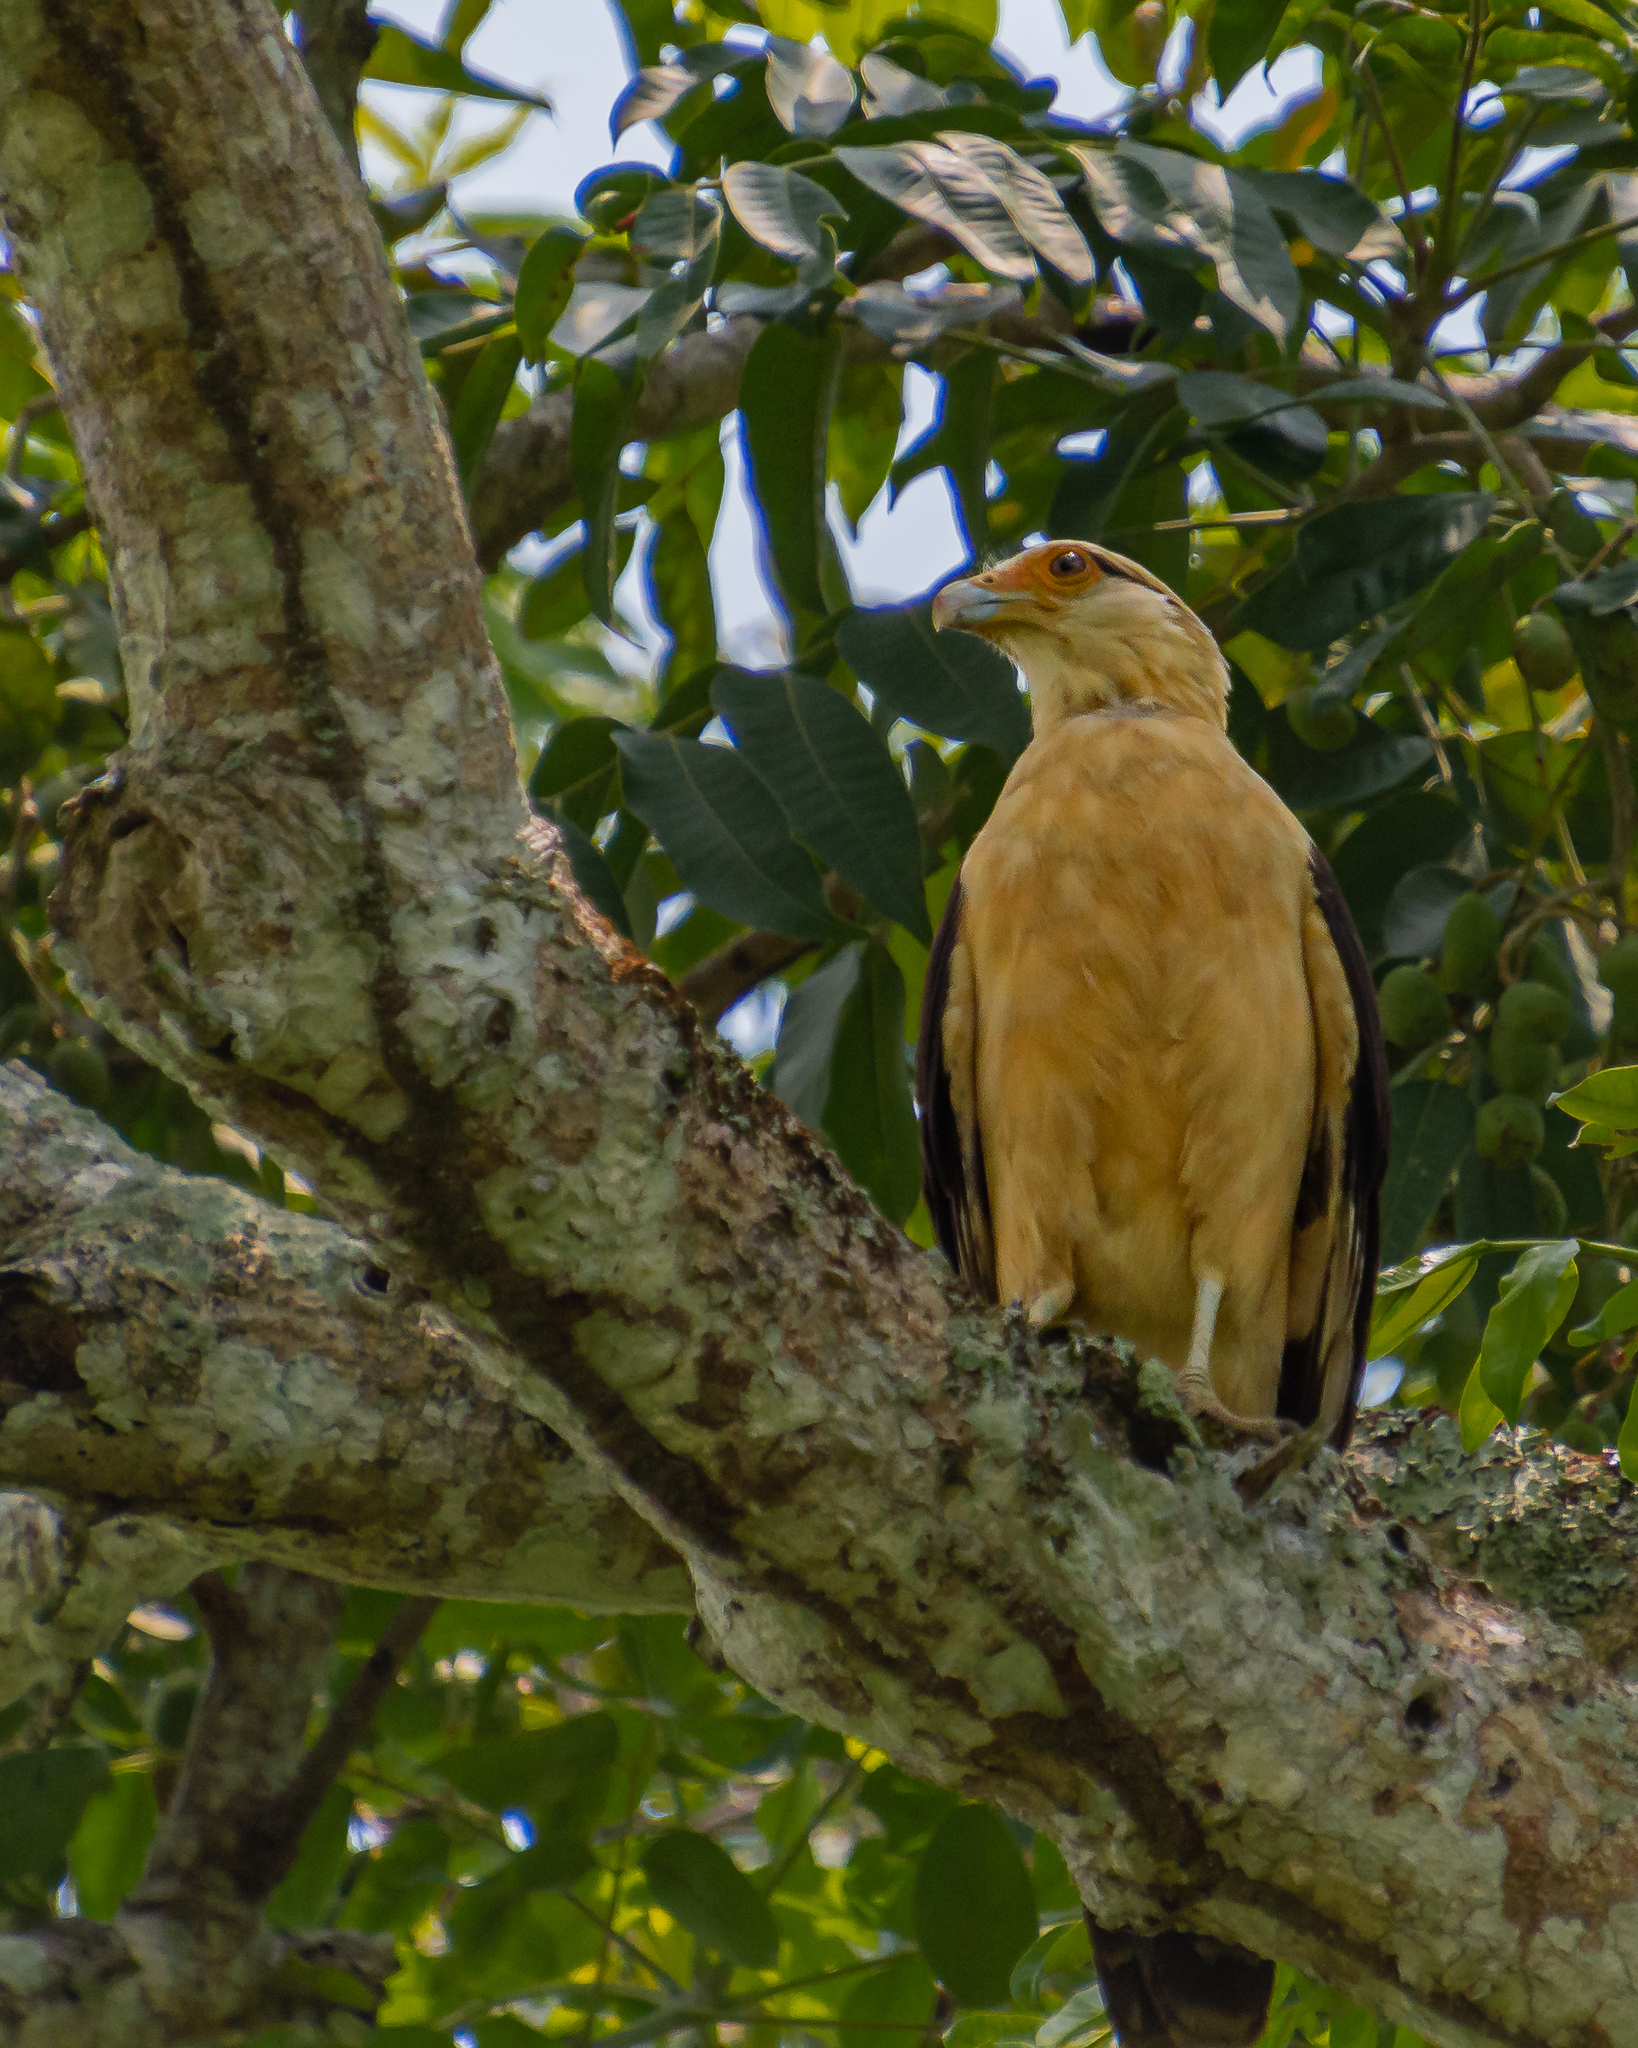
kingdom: Animalia
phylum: Chordata
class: Aves
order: Falconiformes
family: Falconidae
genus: Daptrius
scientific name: Daptrius
